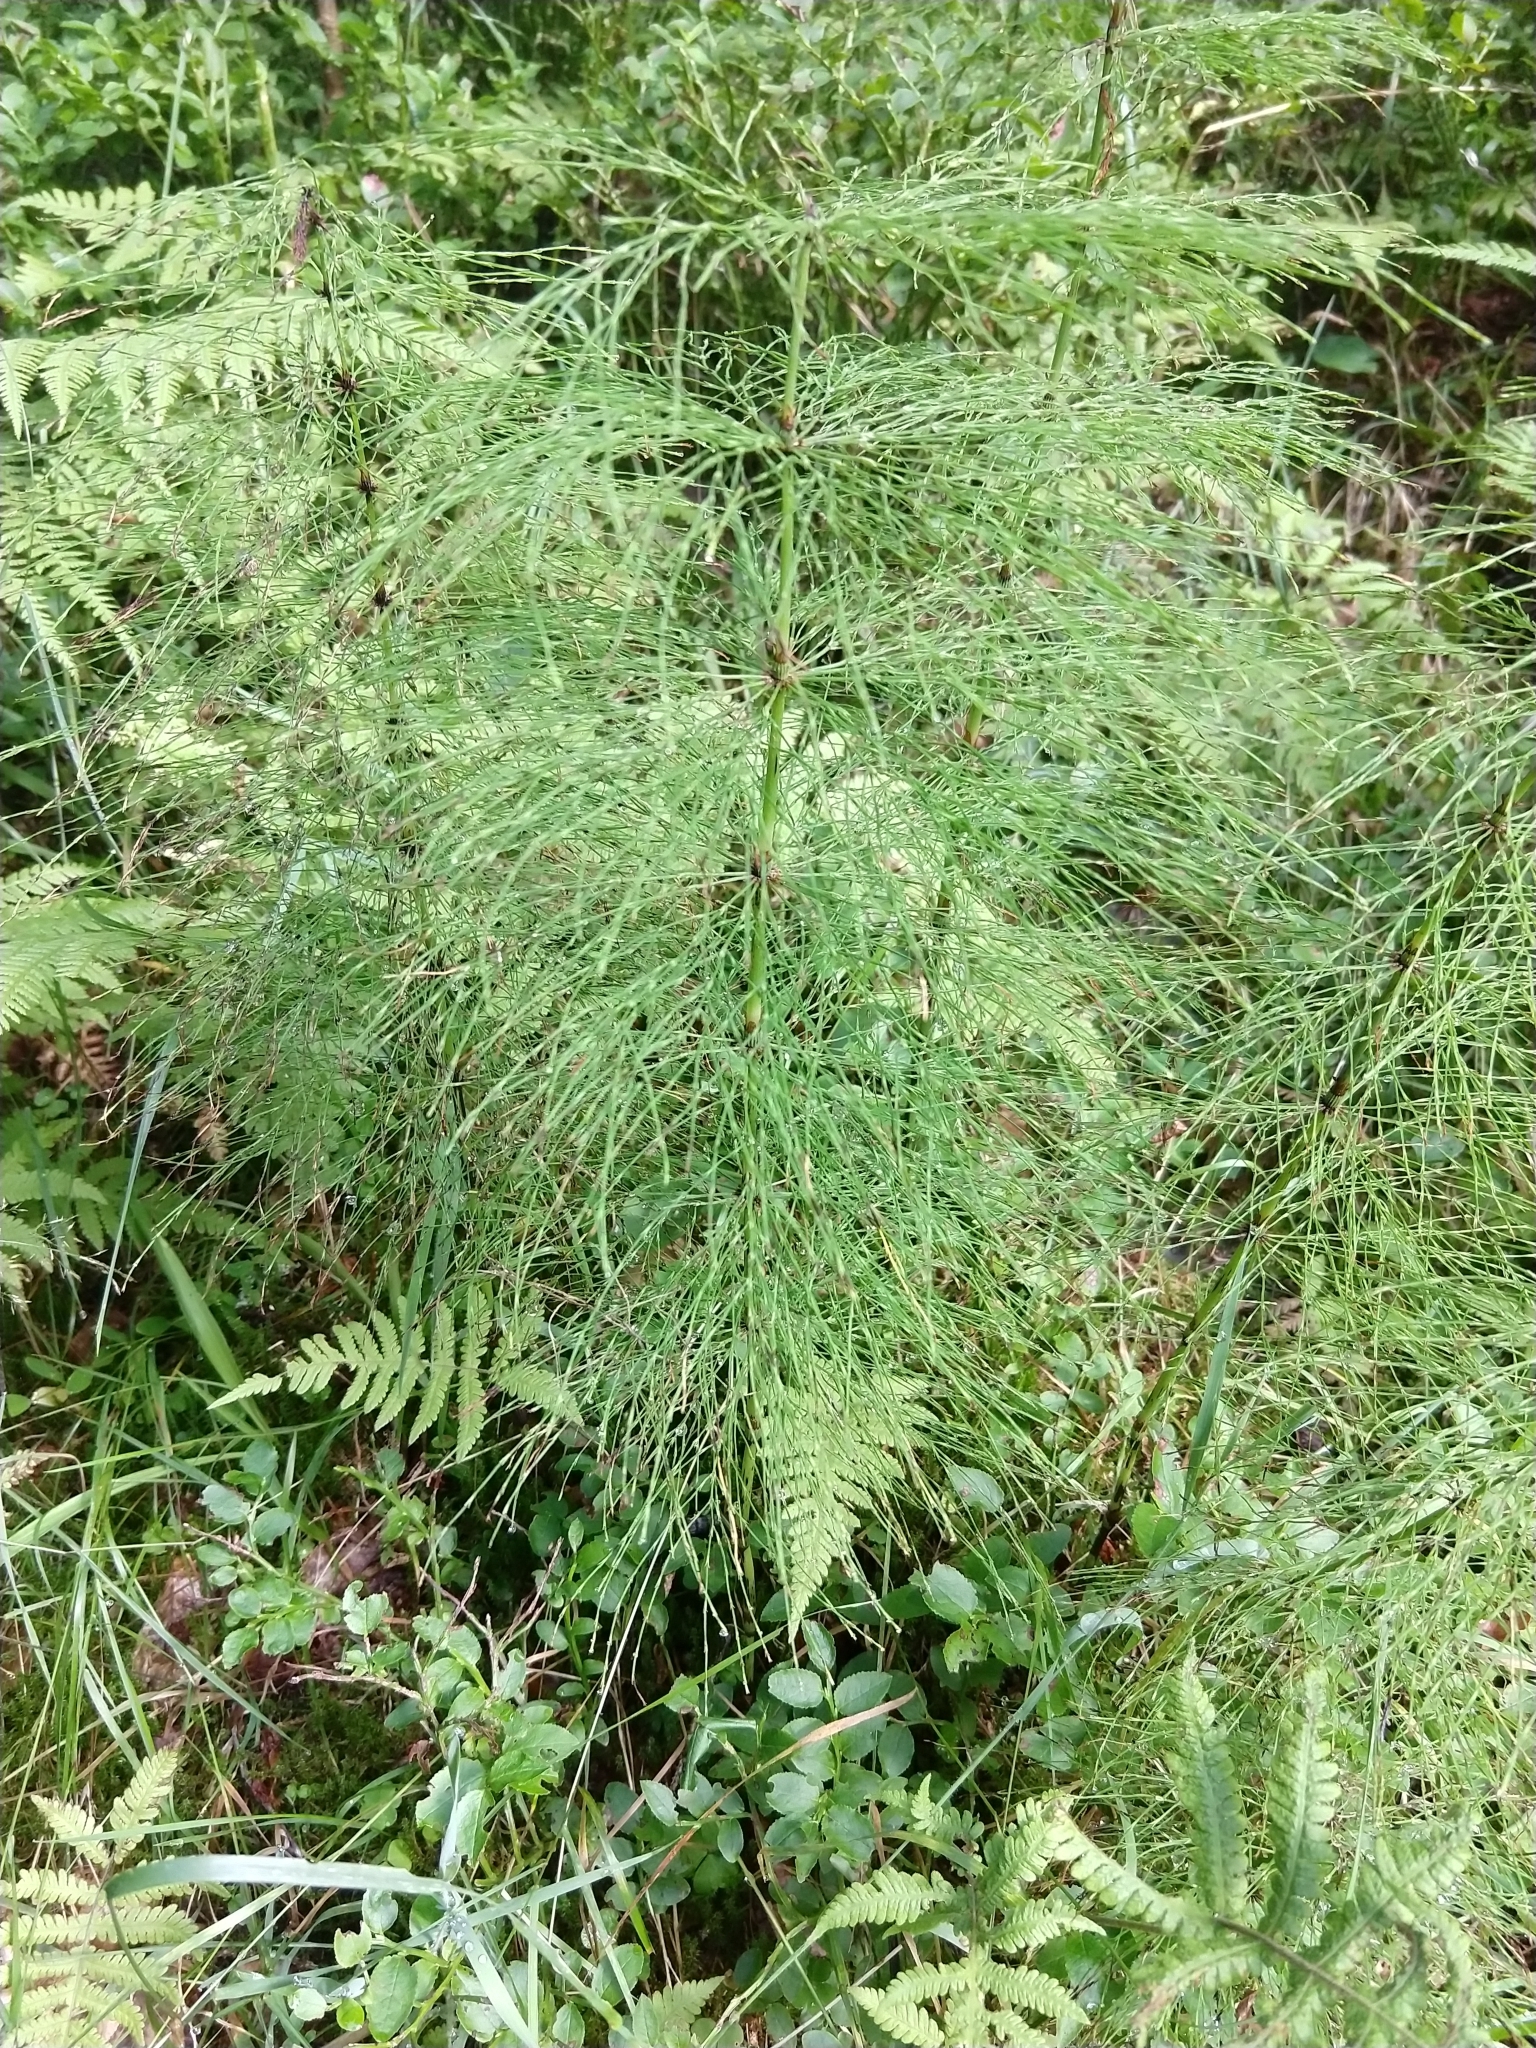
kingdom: Plantae
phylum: Tracheophyta
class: Polypodiopsida
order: Equisetales
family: Equisetaceae
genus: Equisetum
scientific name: Equisetum sylvaticum
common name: Wood horsetail
